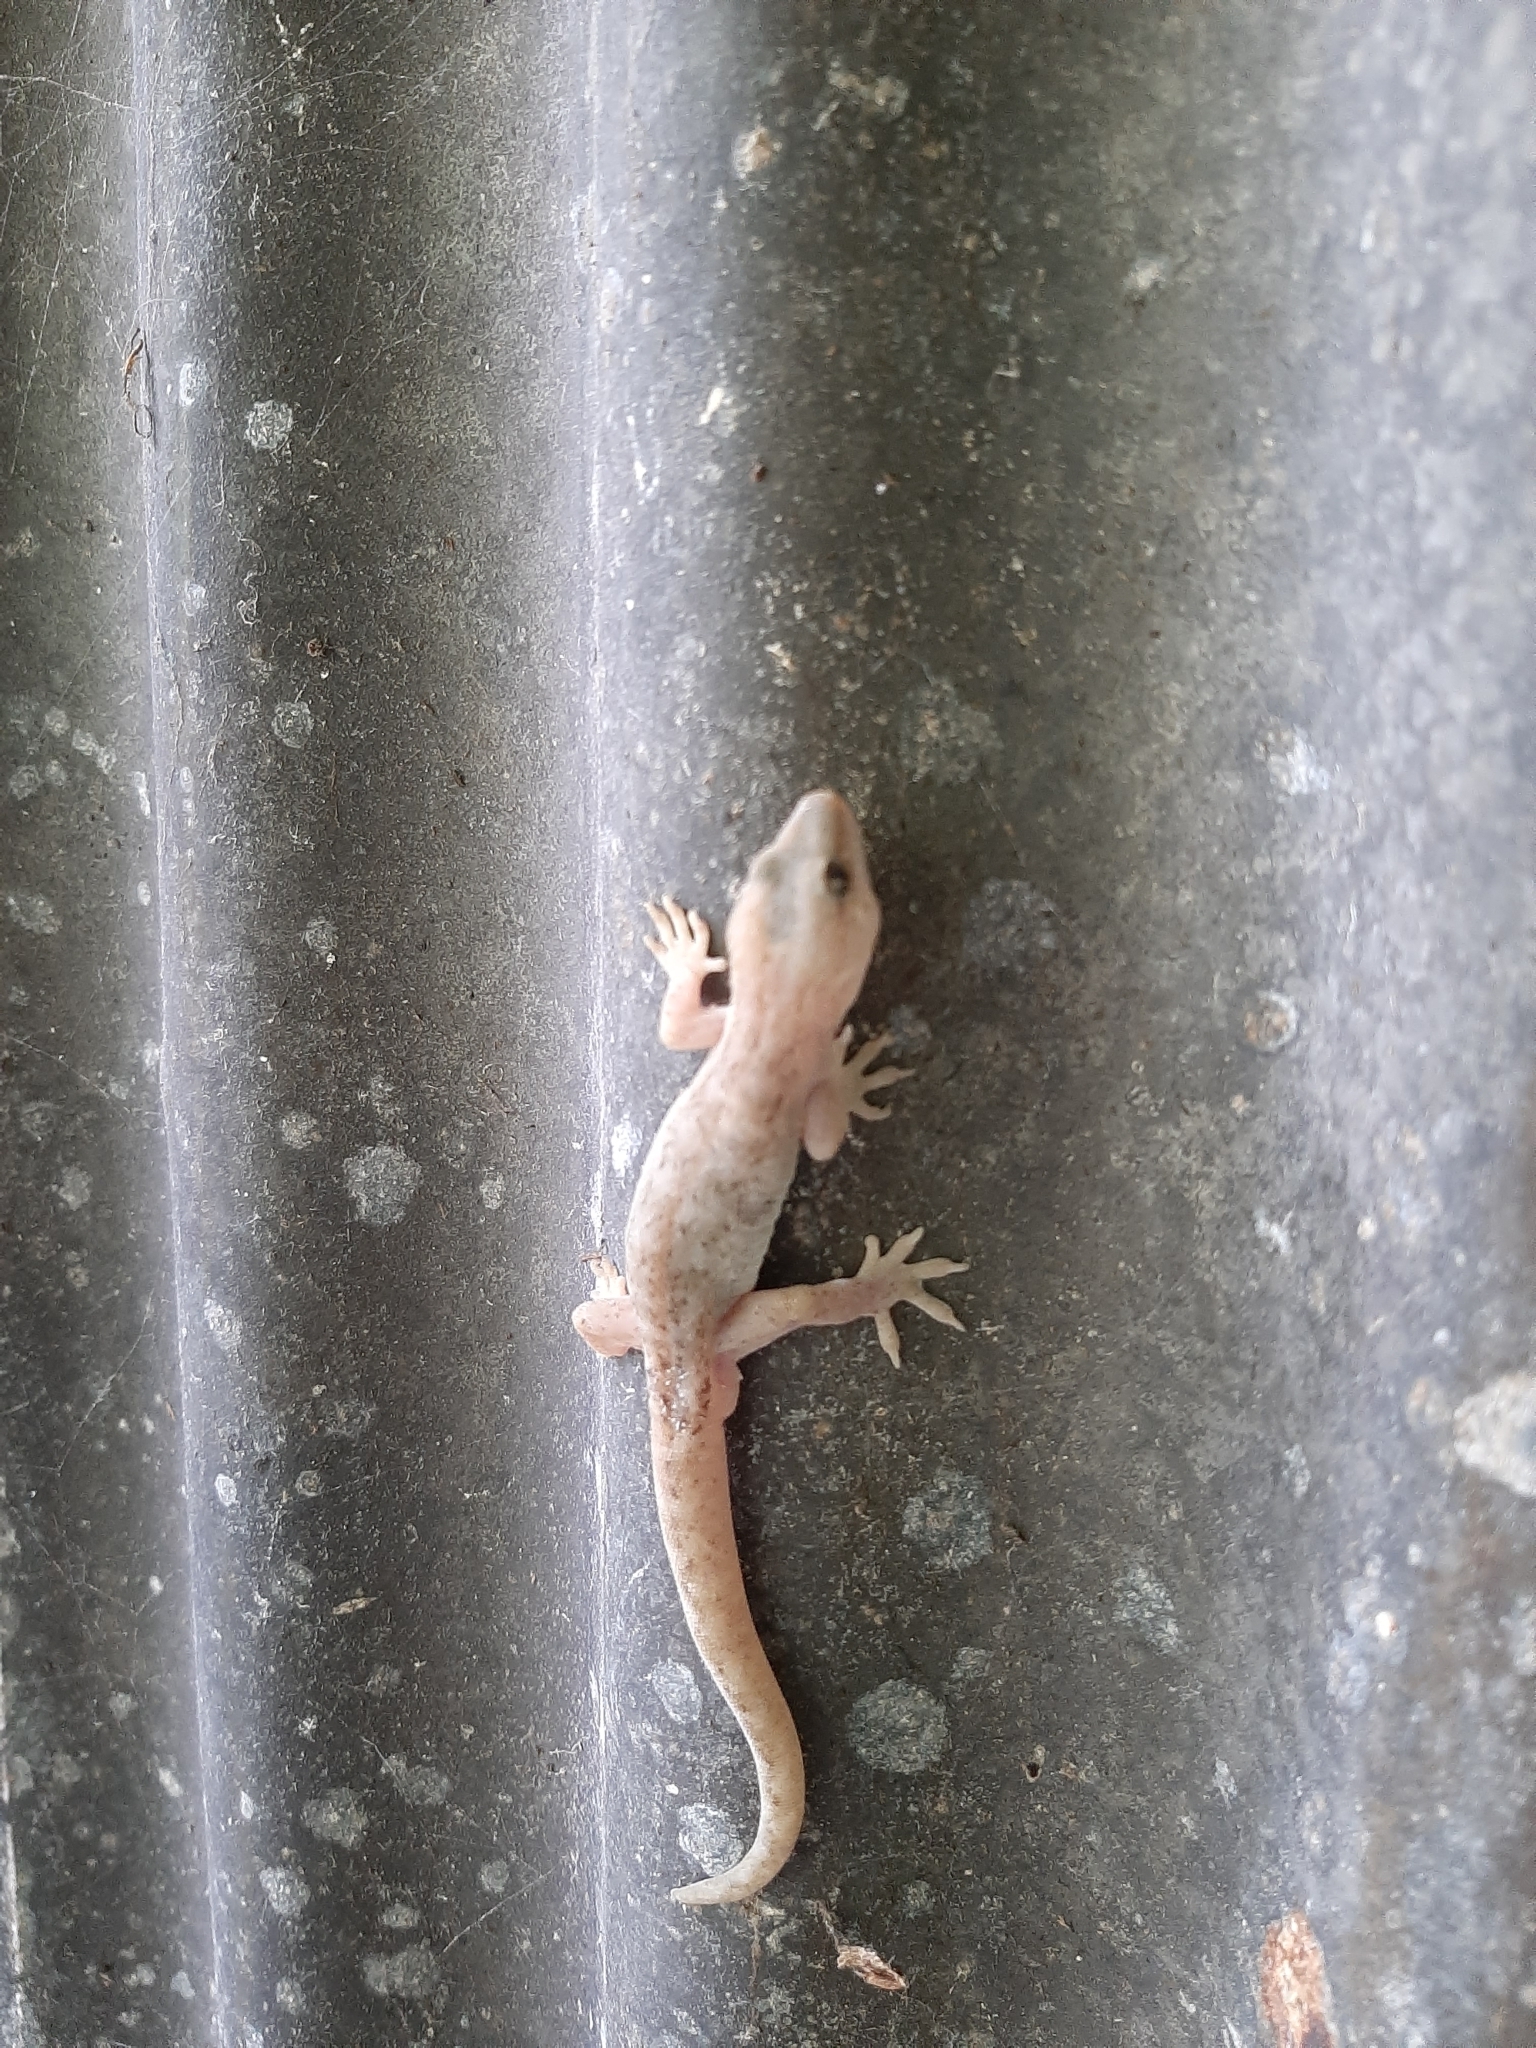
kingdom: Animalia
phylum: Chordata
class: Squamata
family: Diplodactylidae
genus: Woodworthia
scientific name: Woodworthia maculata
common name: Raukawa gecko
